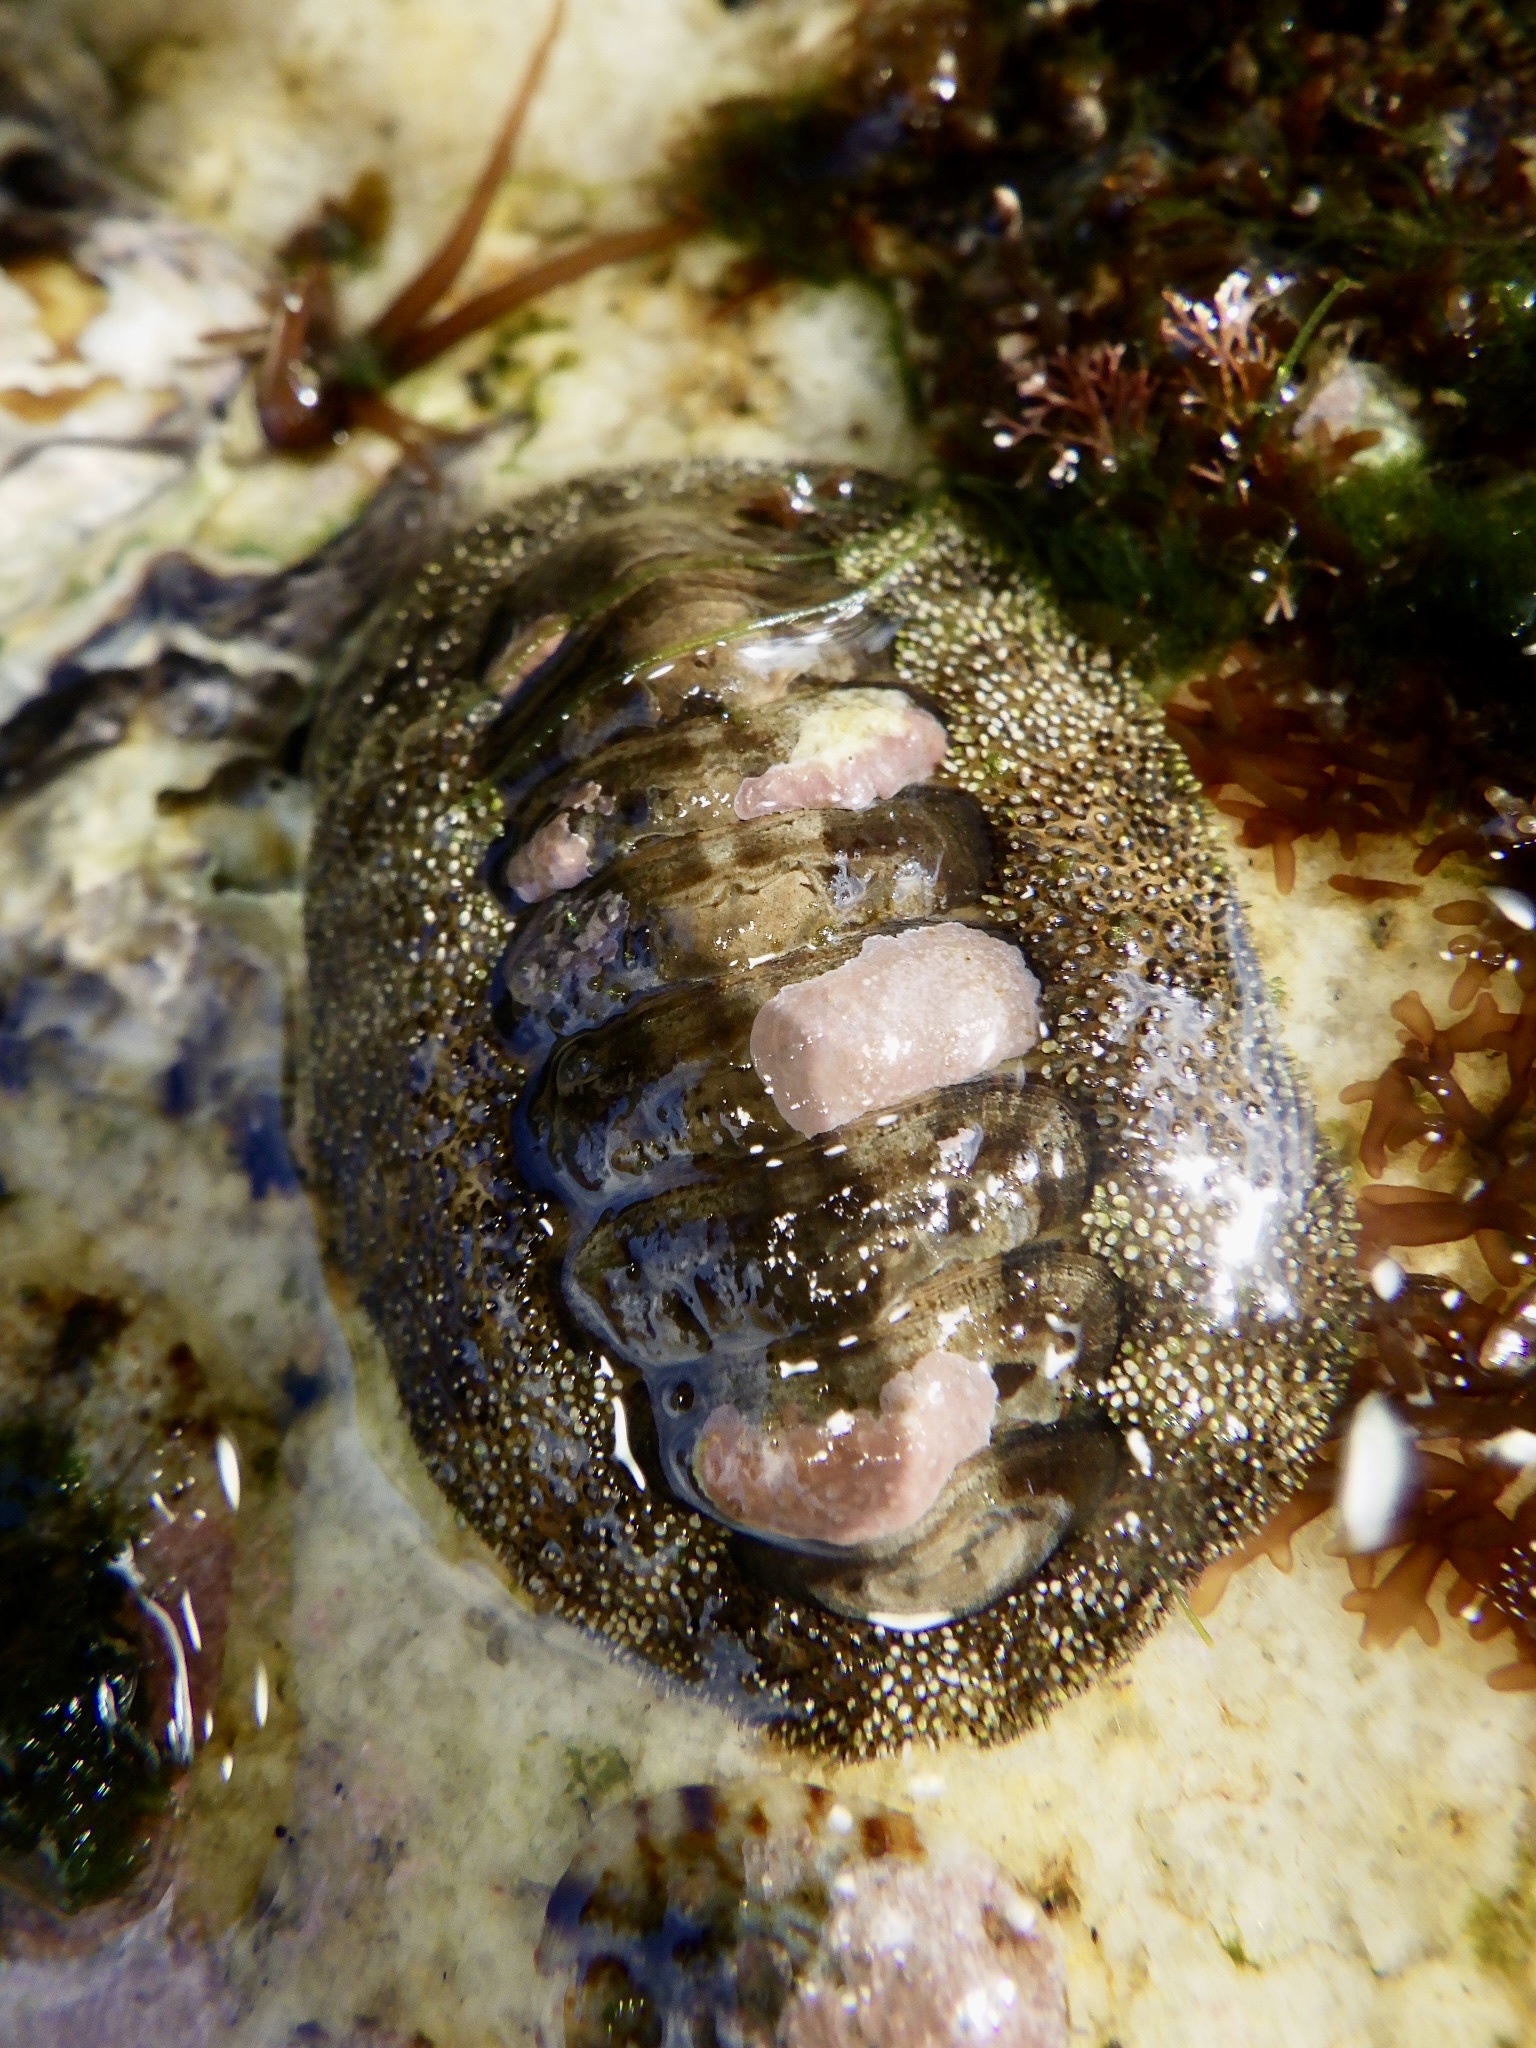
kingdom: Animalia
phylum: Mollusca
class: Polyplacophora
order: Chitonida
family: Chitonidae
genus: Liolophura
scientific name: Liolophura japonica
